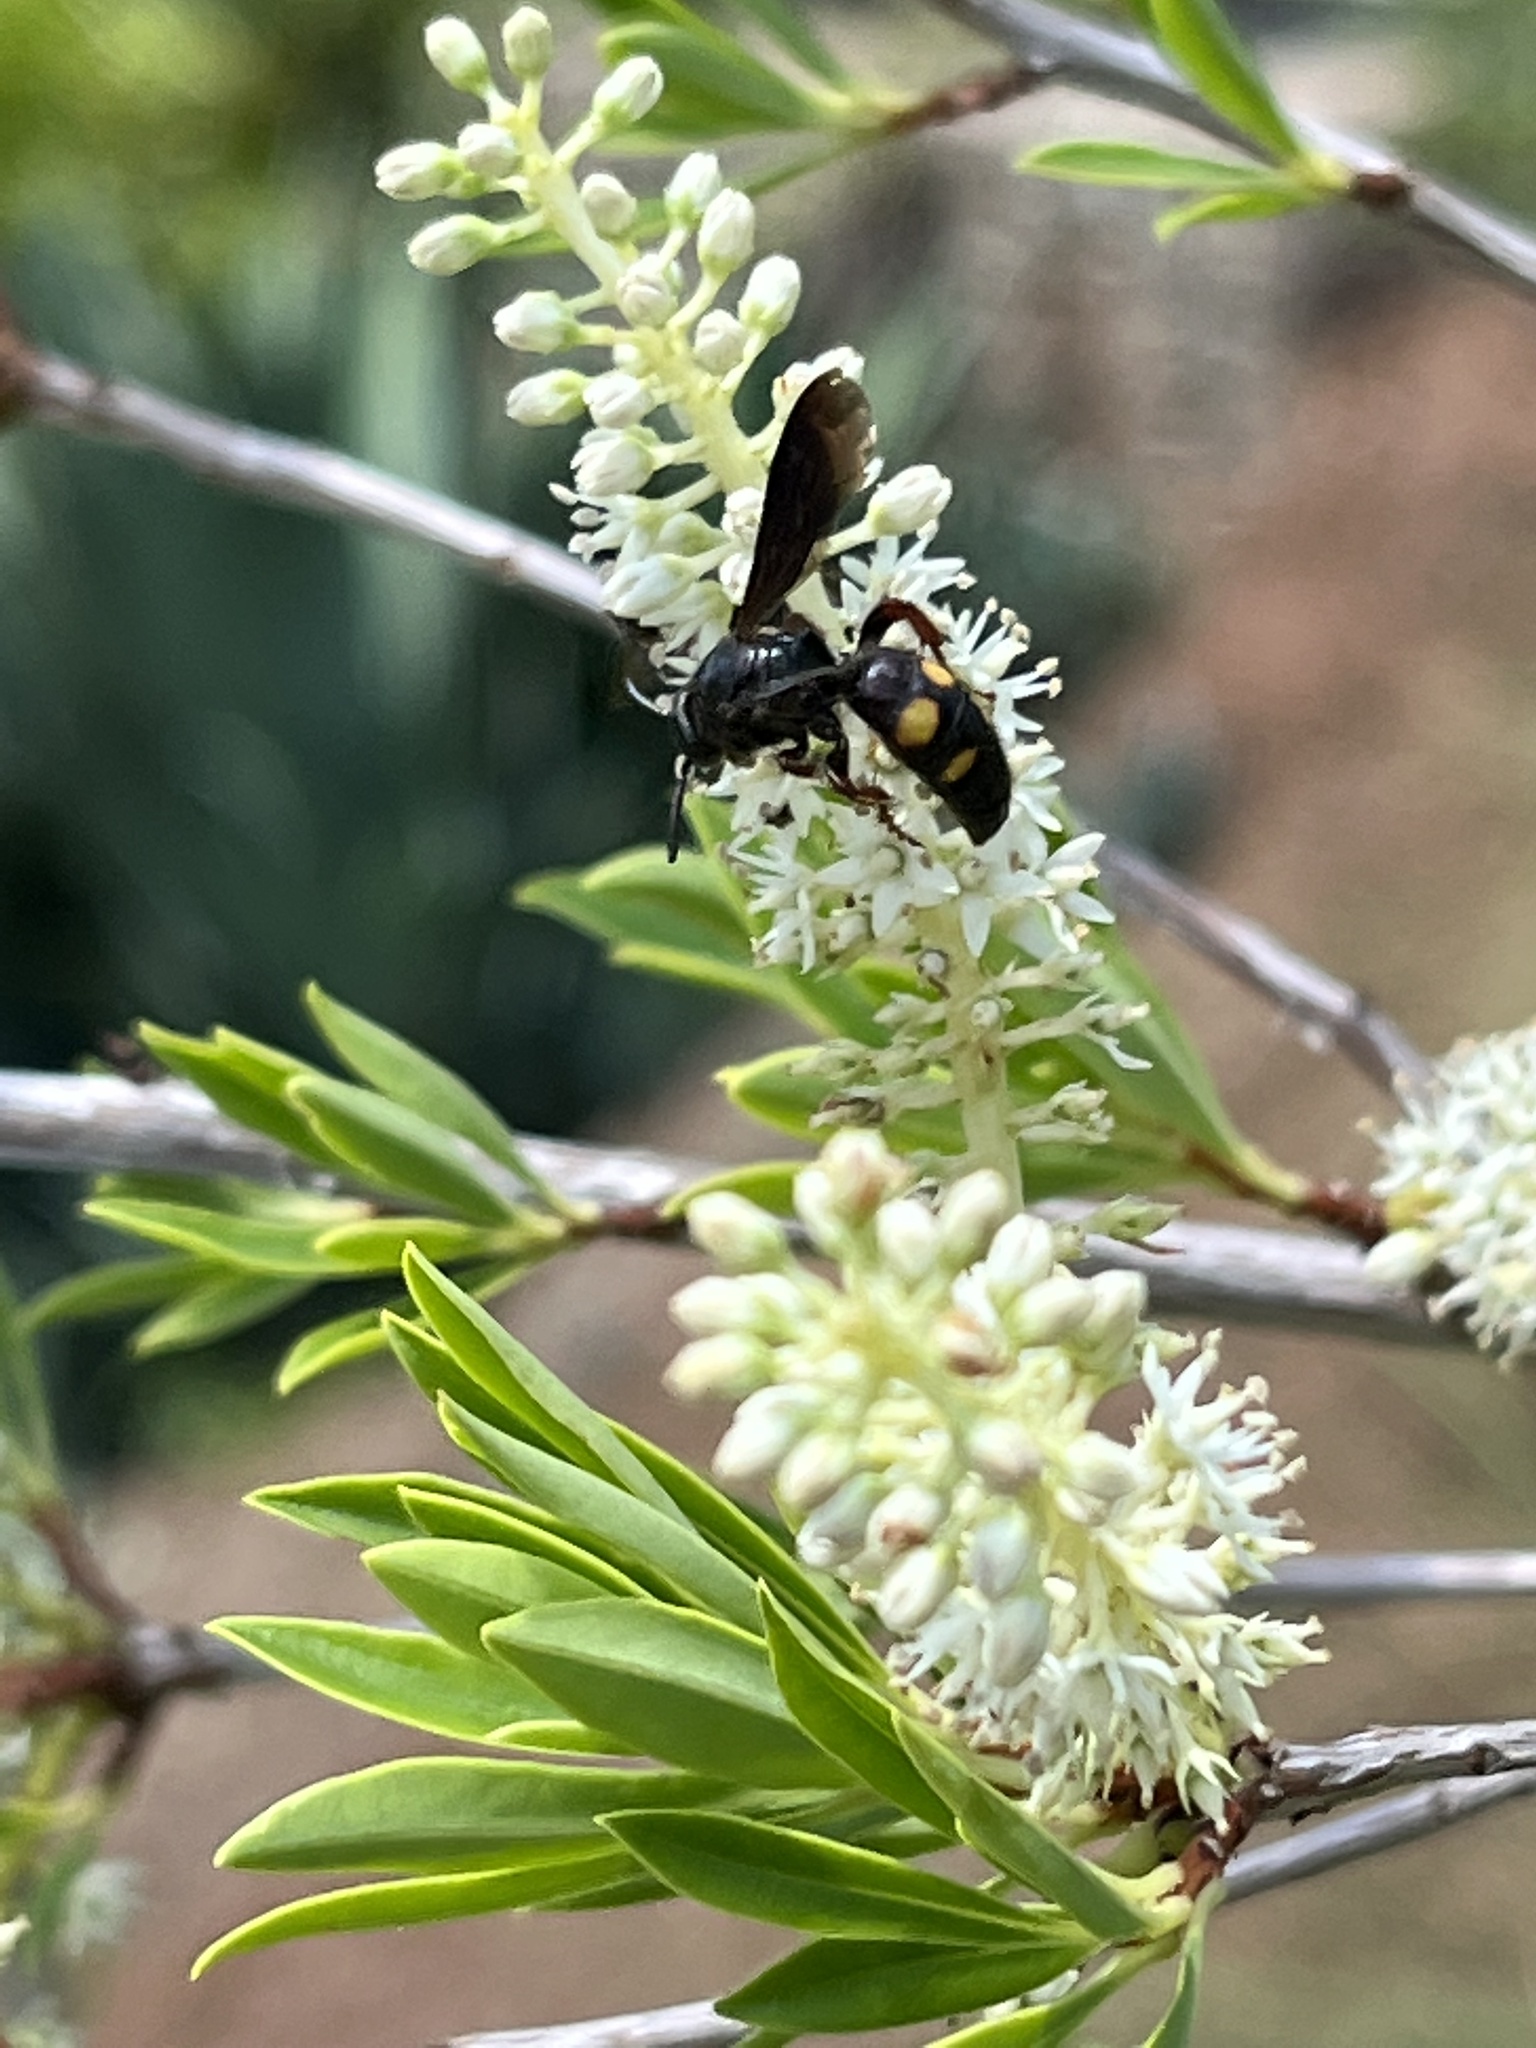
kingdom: Animalia
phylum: Arthropoda
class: Insecta
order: Hymenoptera
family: Scoliidae
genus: Scolia
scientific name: Scolia nobilitata
